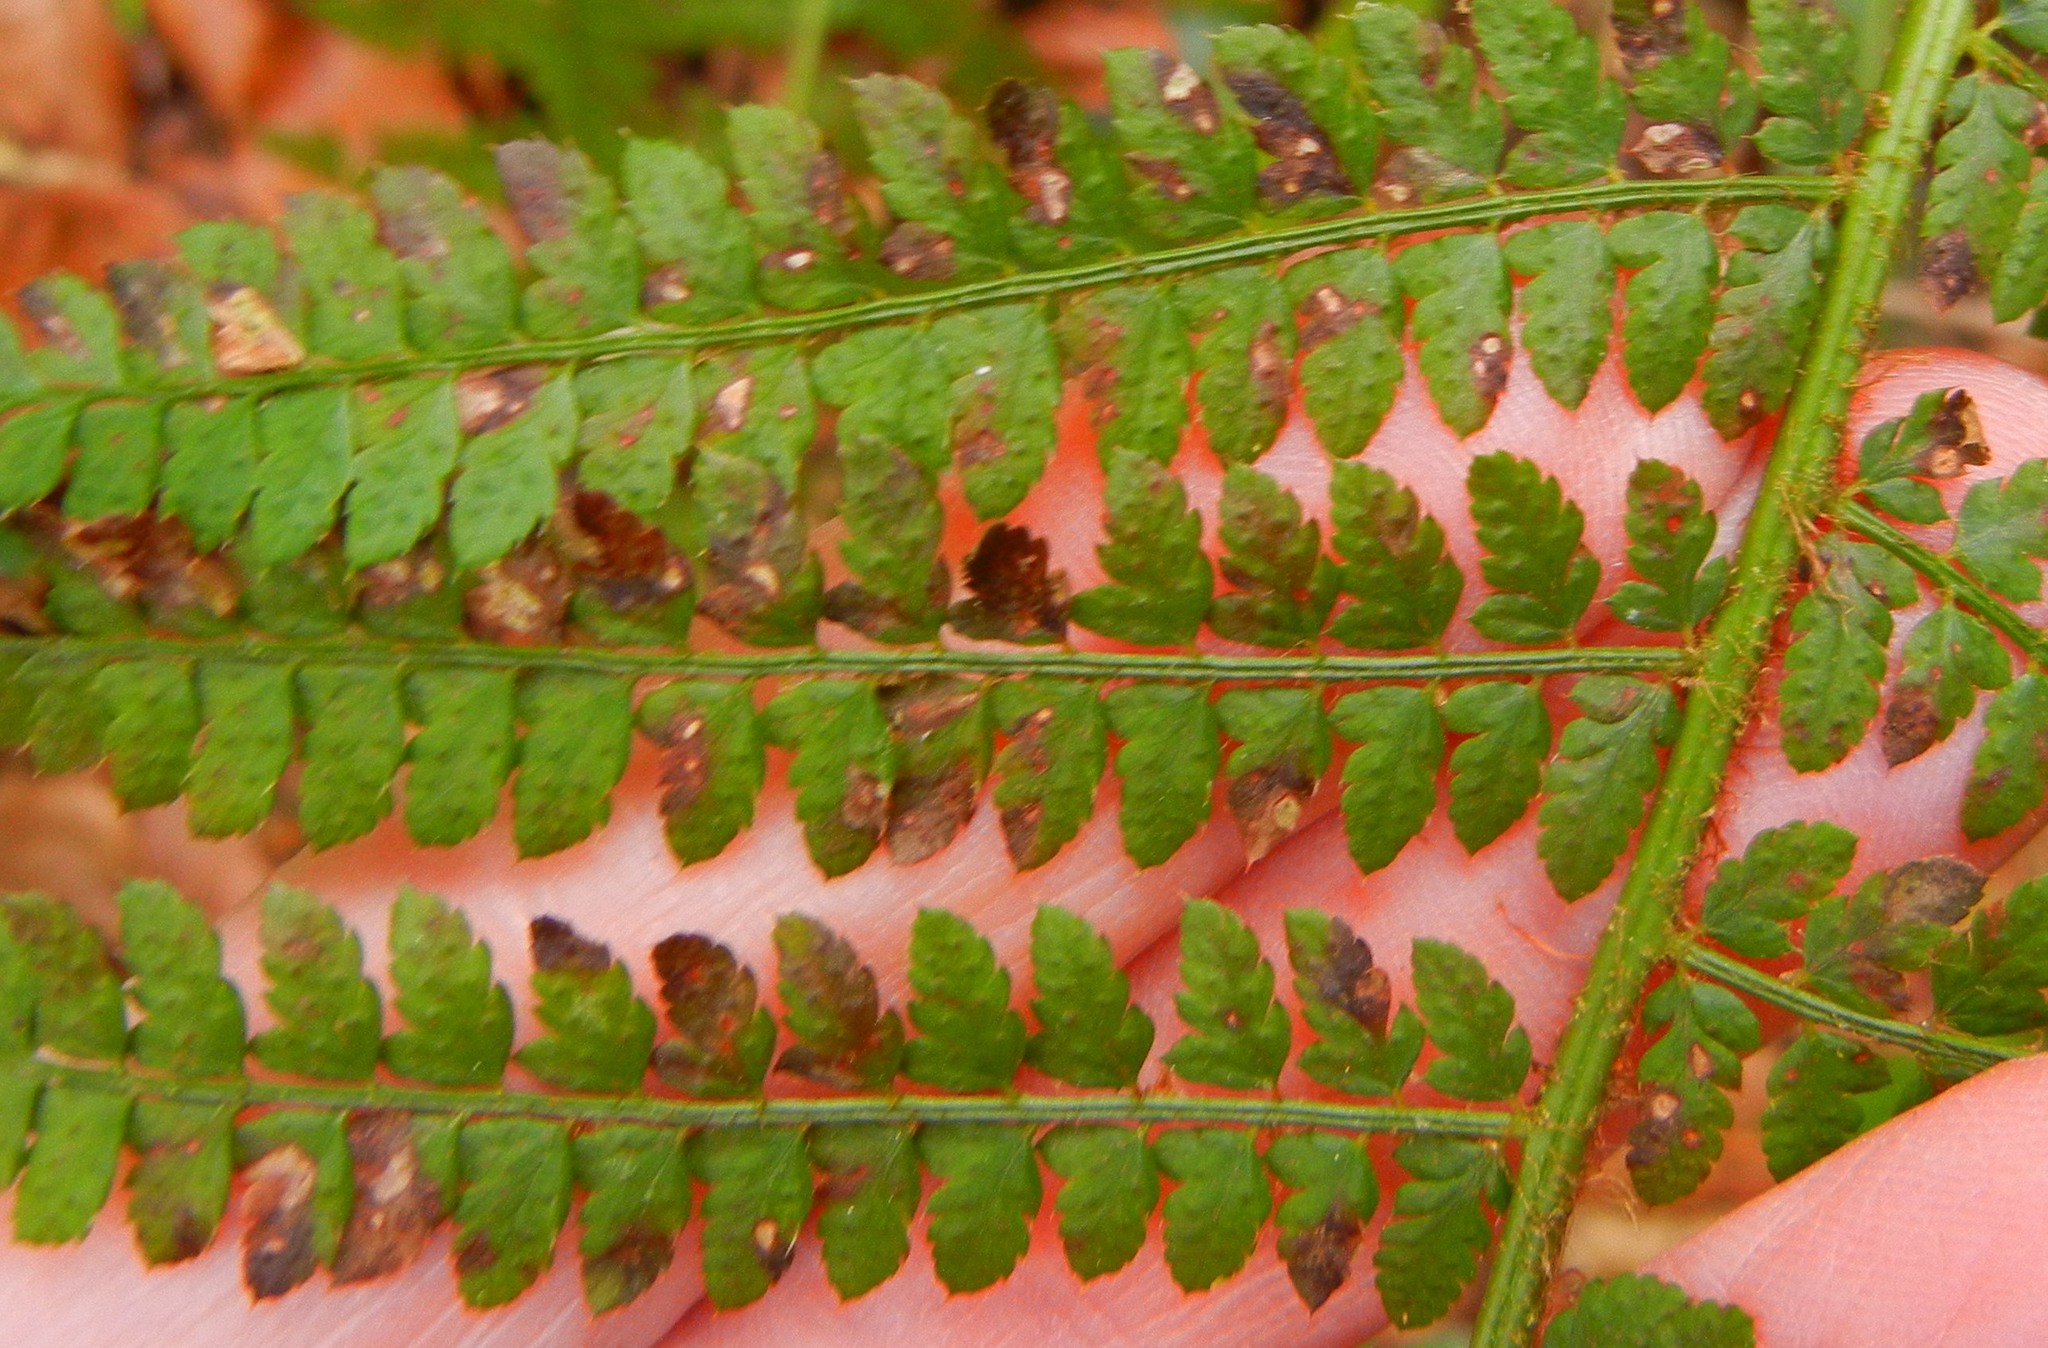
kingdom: Plantae
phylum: Tracheophyta
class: Polypodiopsida
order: Polypodiales
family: Dryopteridaceae
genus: Polystichum
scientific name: Polystichum setiferum
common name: Soft shield-fern
